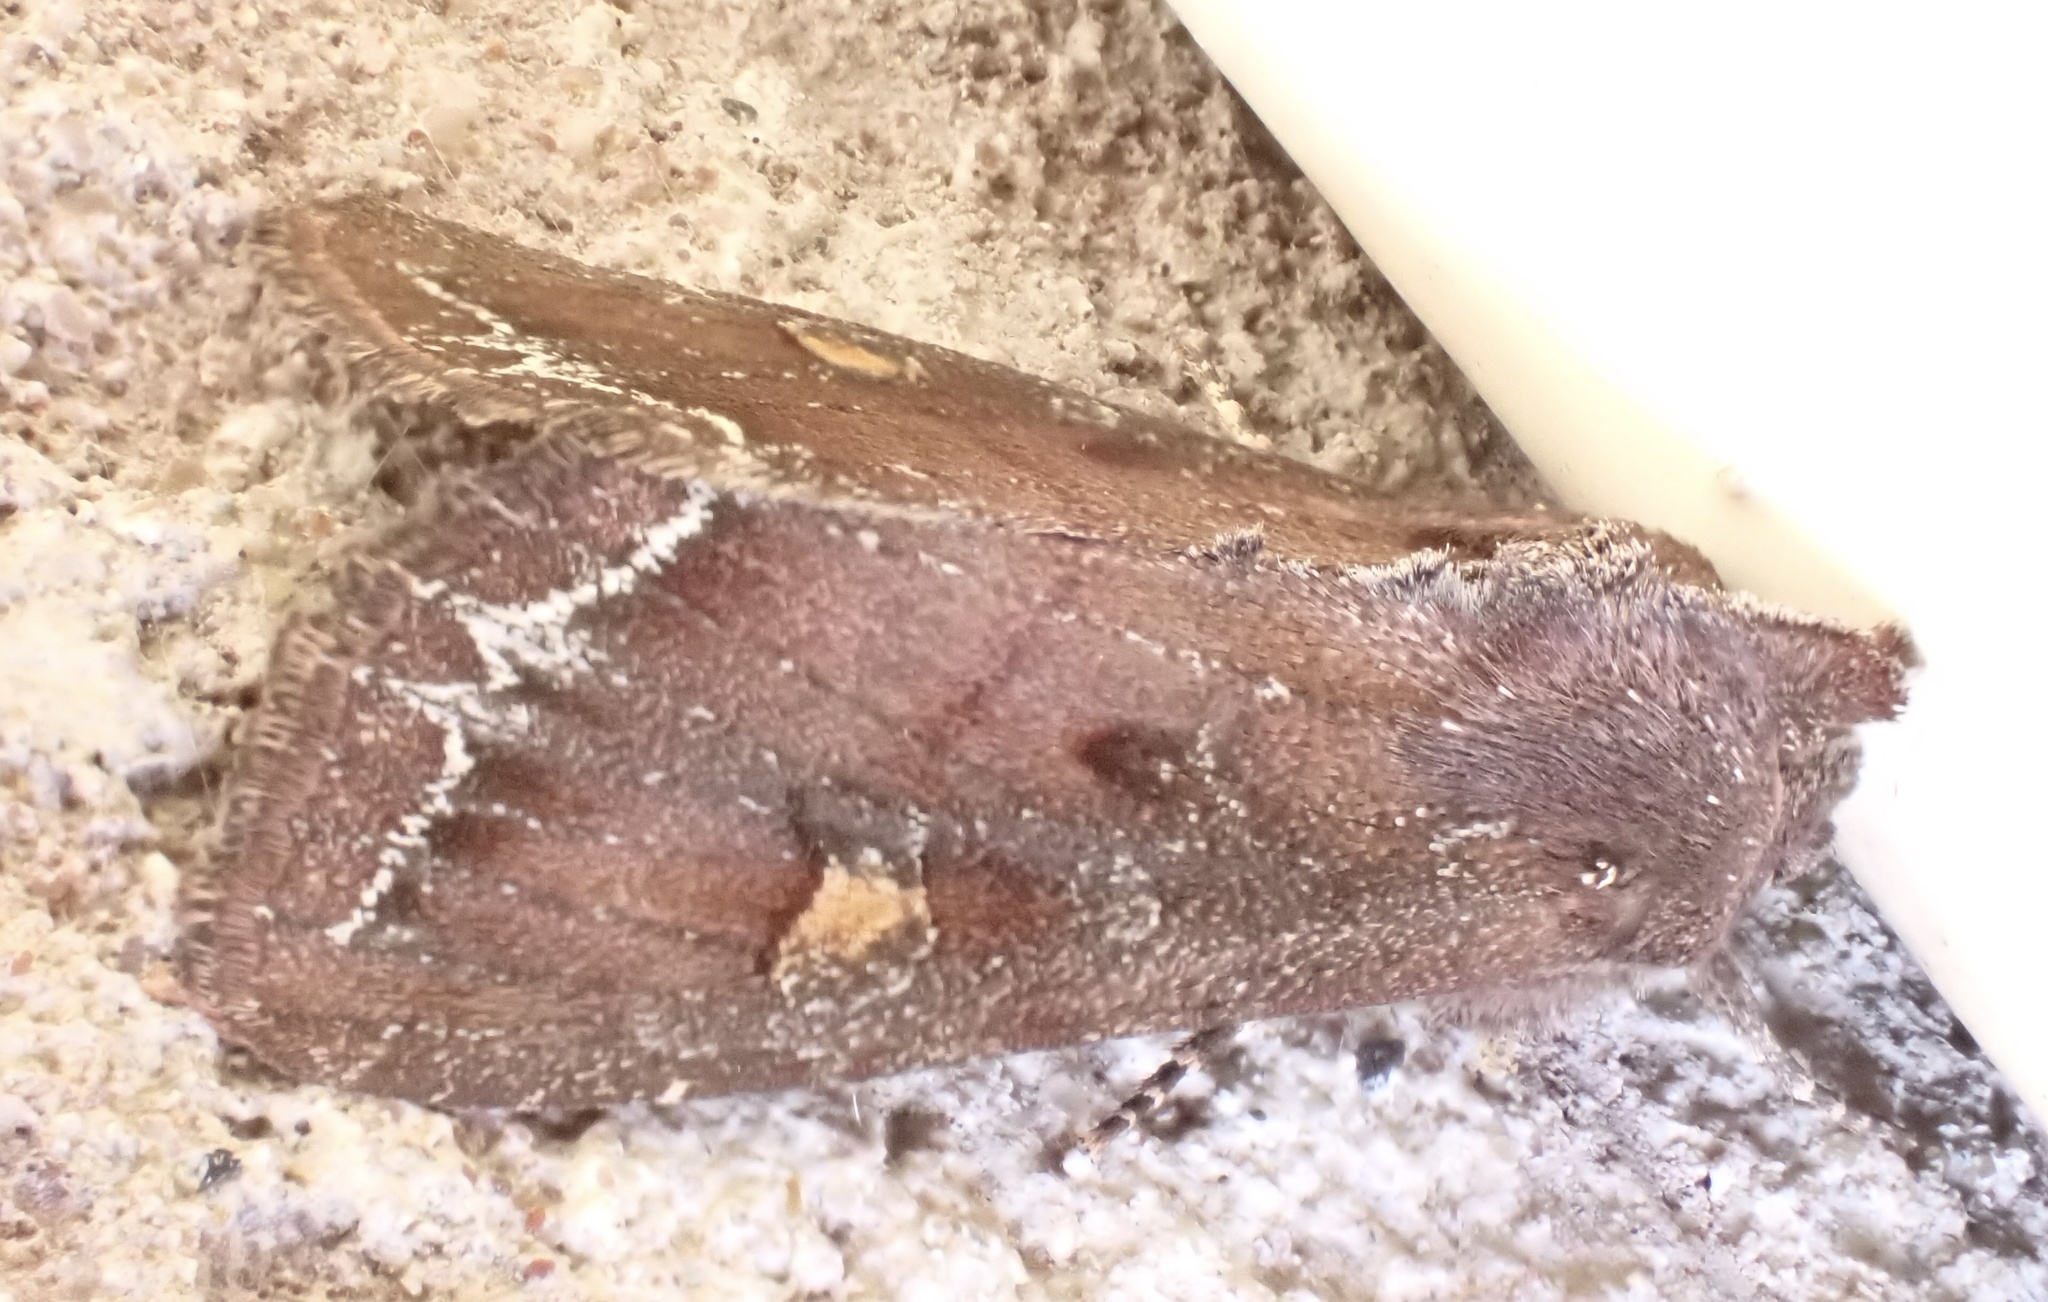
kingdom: Animalia
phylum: Arthropoda
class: Insecta
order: Lepidoptera
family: Noctuidae
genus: Lacanobia
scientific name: Lacanobia oleracea
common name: Bright-line brown-eye
